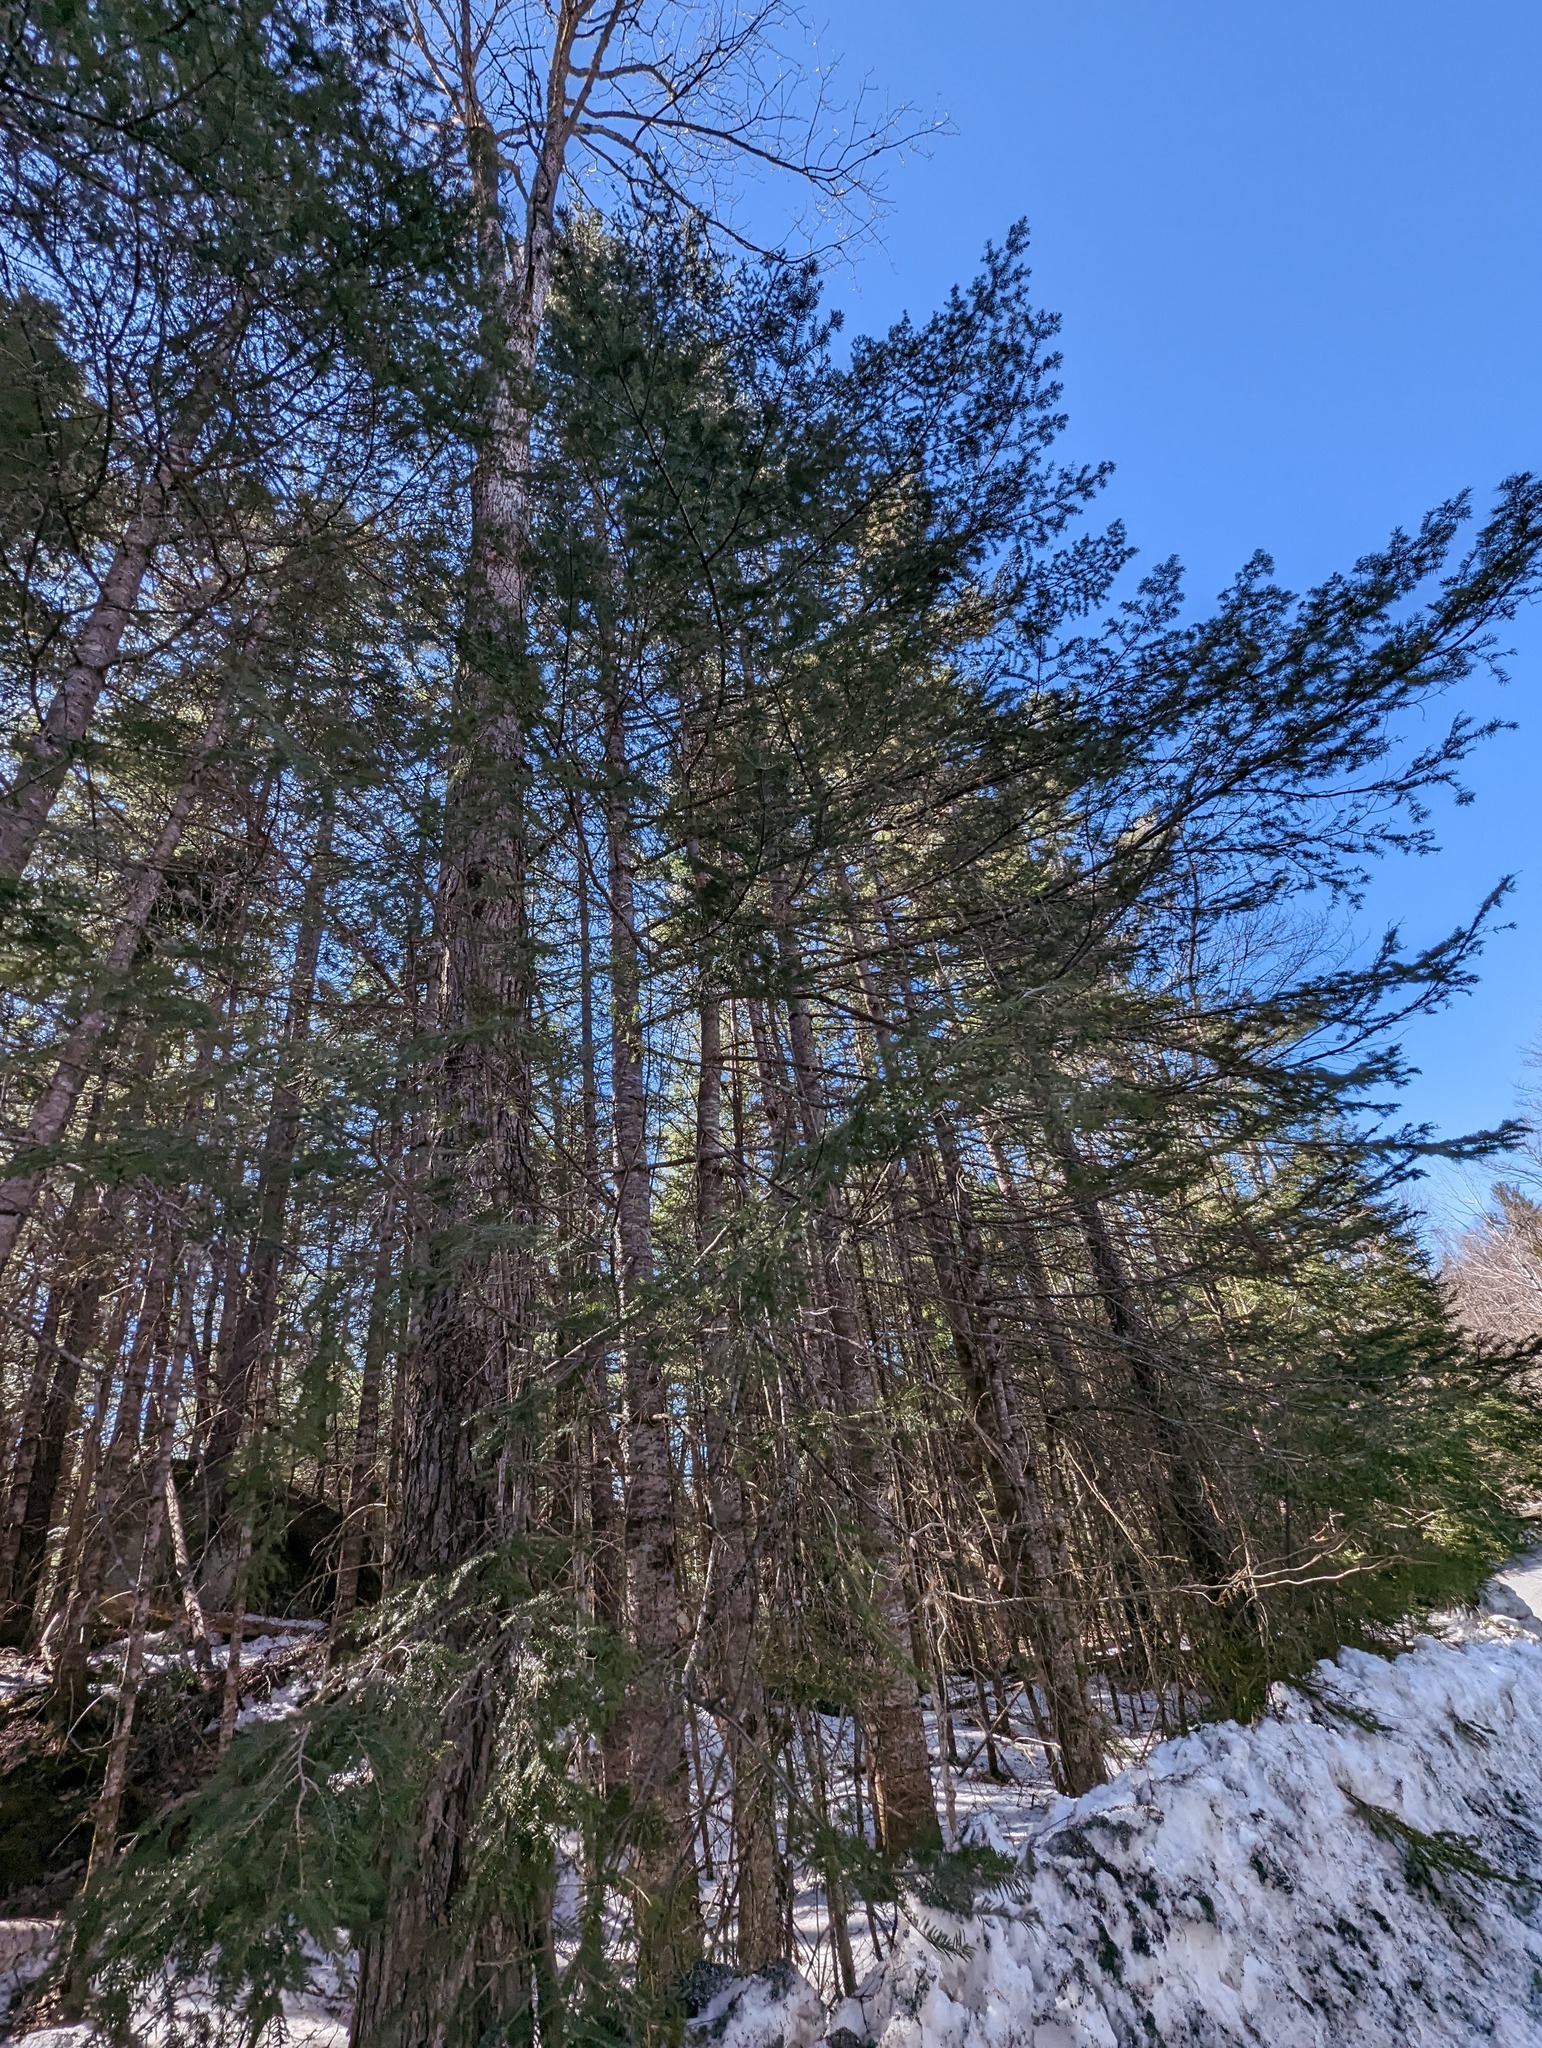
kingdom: Plantae
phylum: Tracheophyta
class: Pinopsida
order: Pinales
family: Pinaceae
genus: Tsuga
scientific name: Tsuga canadensis
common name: Eastern hemlock
